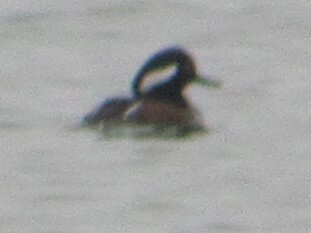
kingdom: Animalia
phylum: Chordata
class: Aves
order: Anseriformes
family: Anatidae
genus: Lophodytes
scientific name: Lophodytes cucullatus
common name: Hooded merganser
